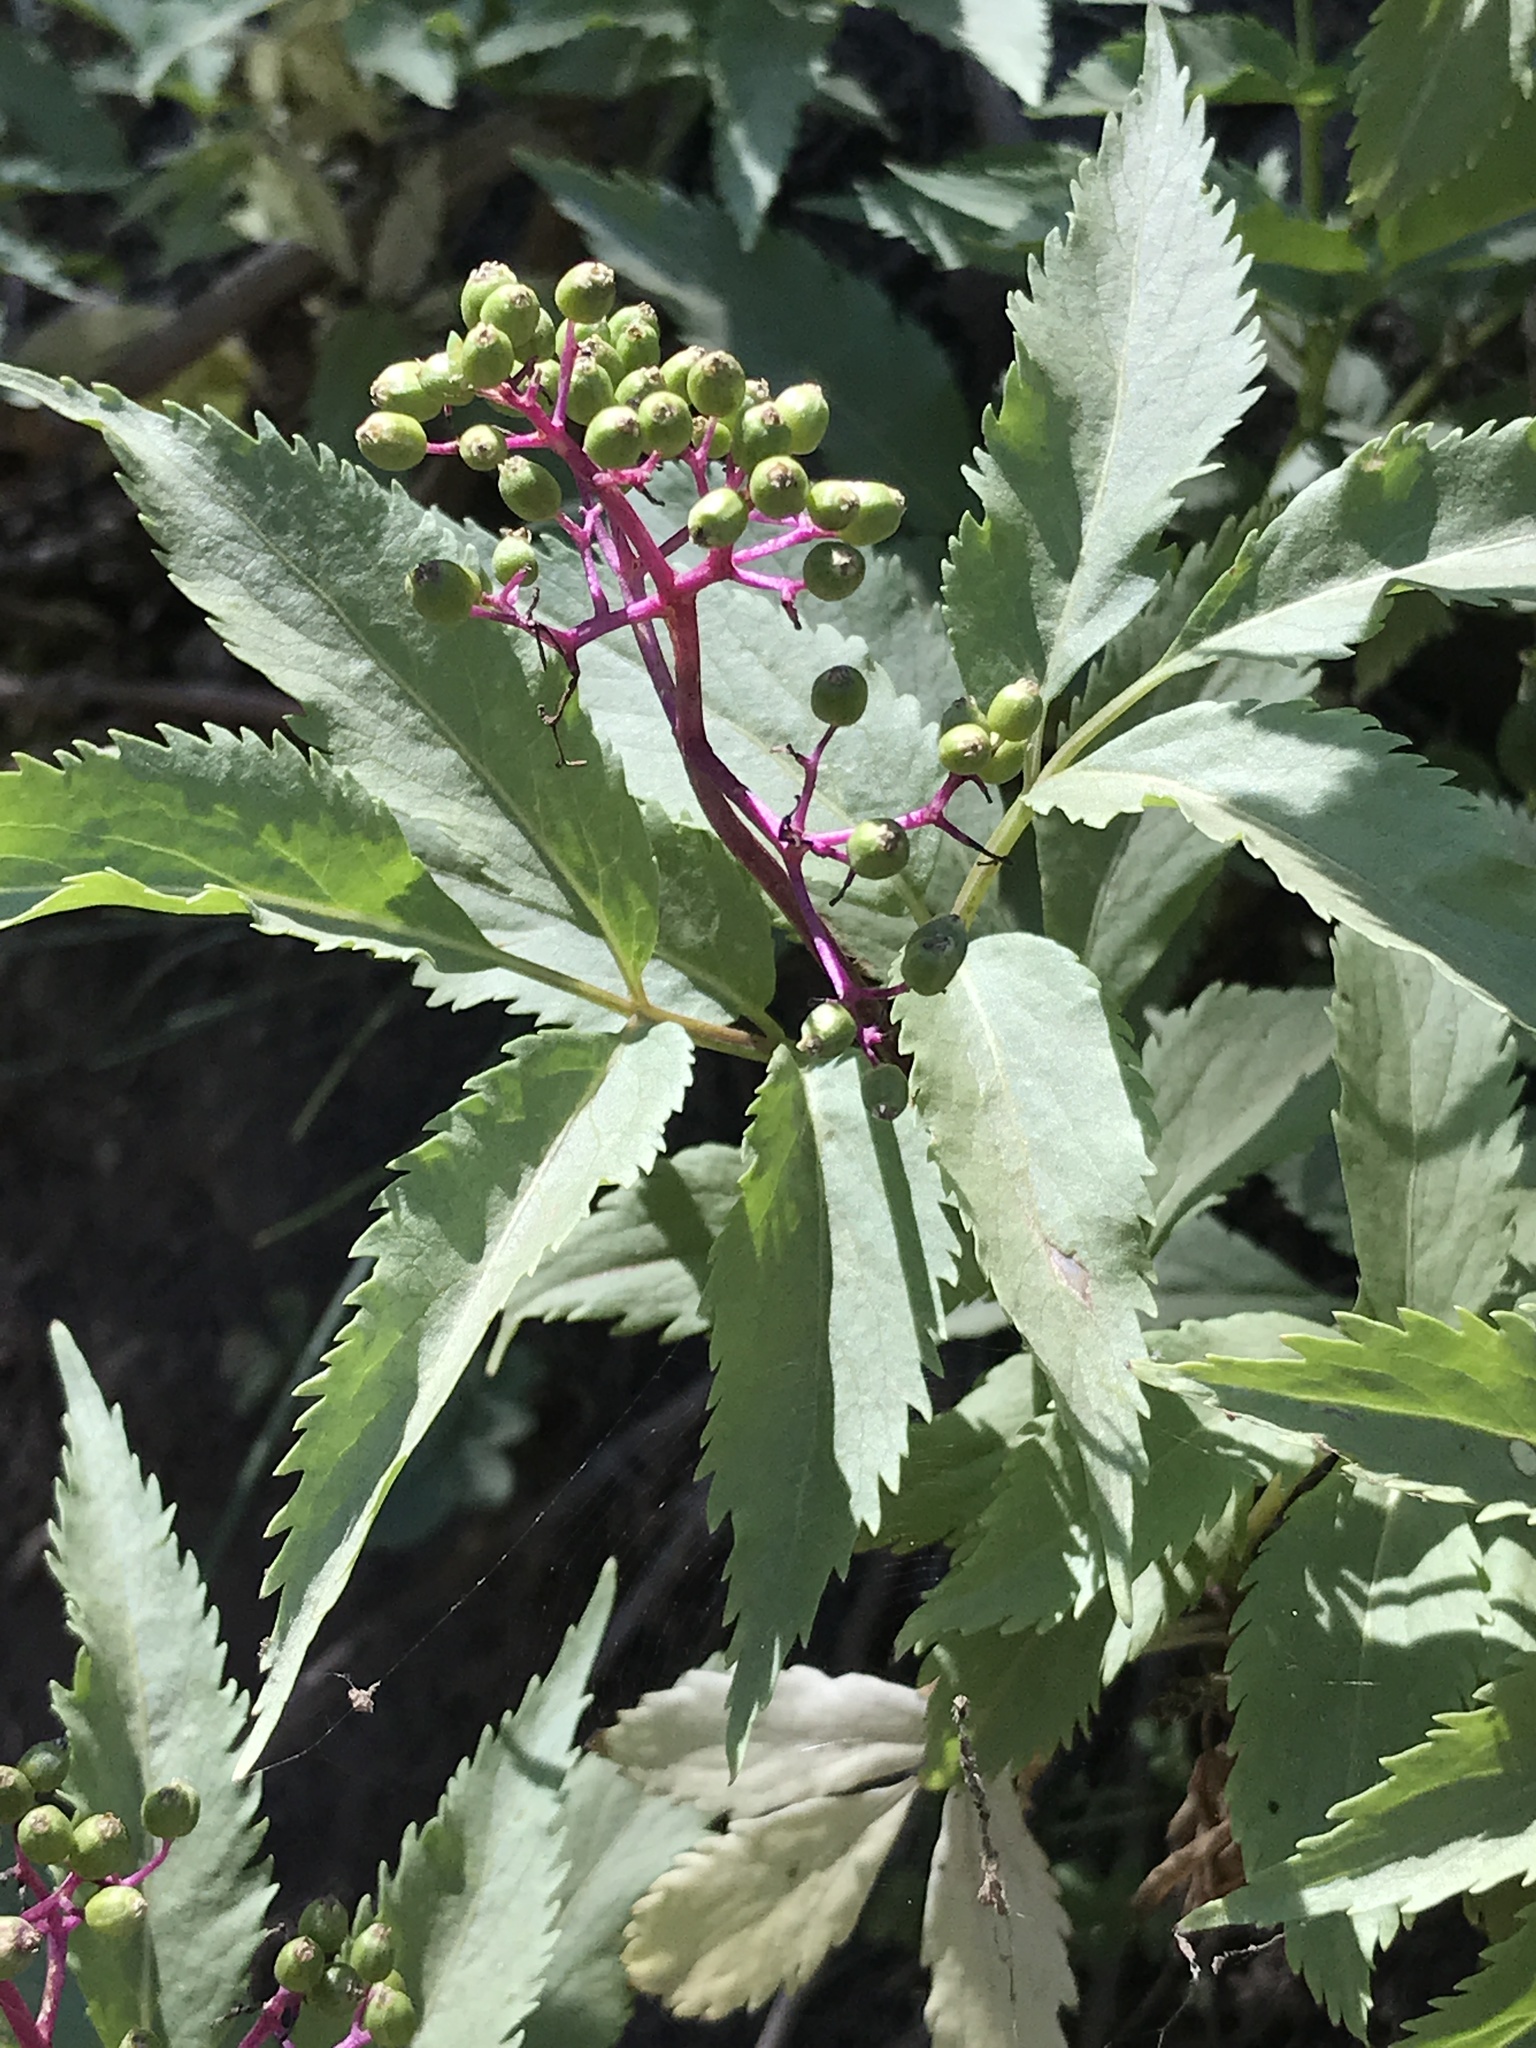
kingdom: Plantae
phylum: Tracheophyta
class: Magnoliopsida
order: Dipsacales
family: Viburnaceae
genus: Sambucus
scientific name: Sambucus racemosa
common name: Red-berried elder
